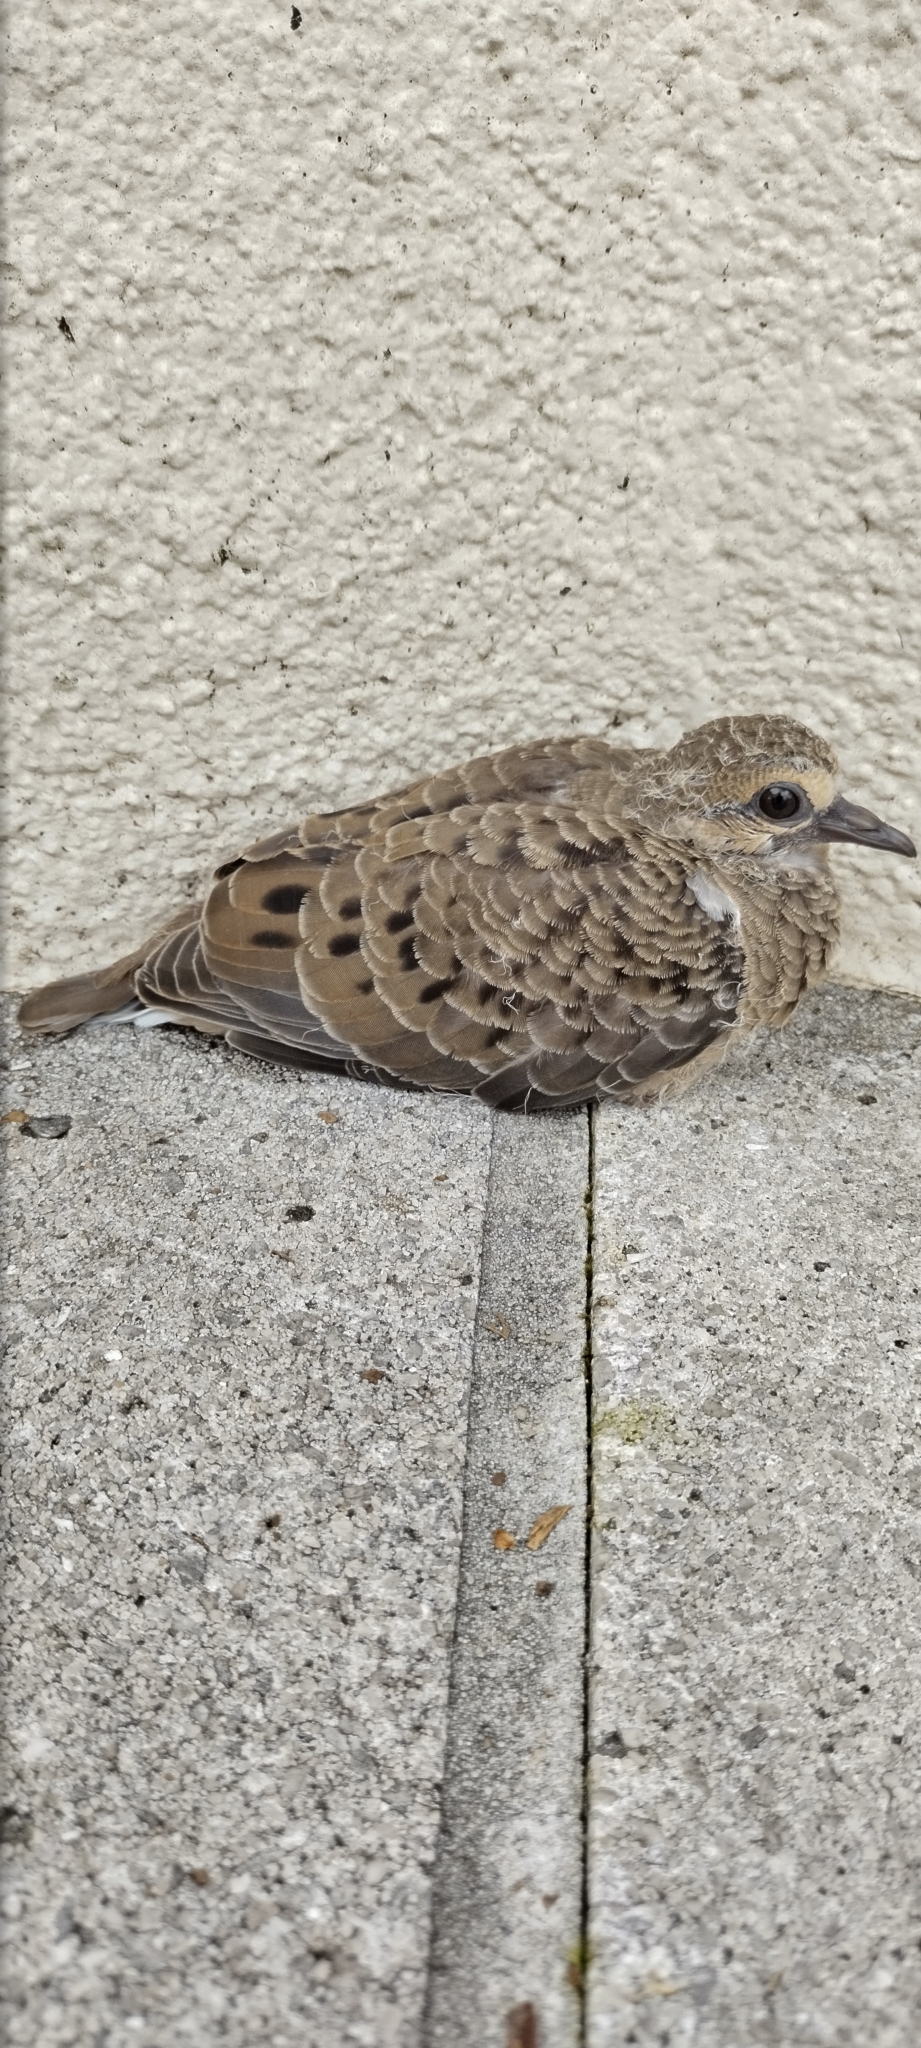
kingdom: Animalia
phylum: Chordata
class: Aves
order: Columbiformes
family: Columbidae
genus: Zenaida
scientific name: Zenaida macroura
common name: Mourning dove
